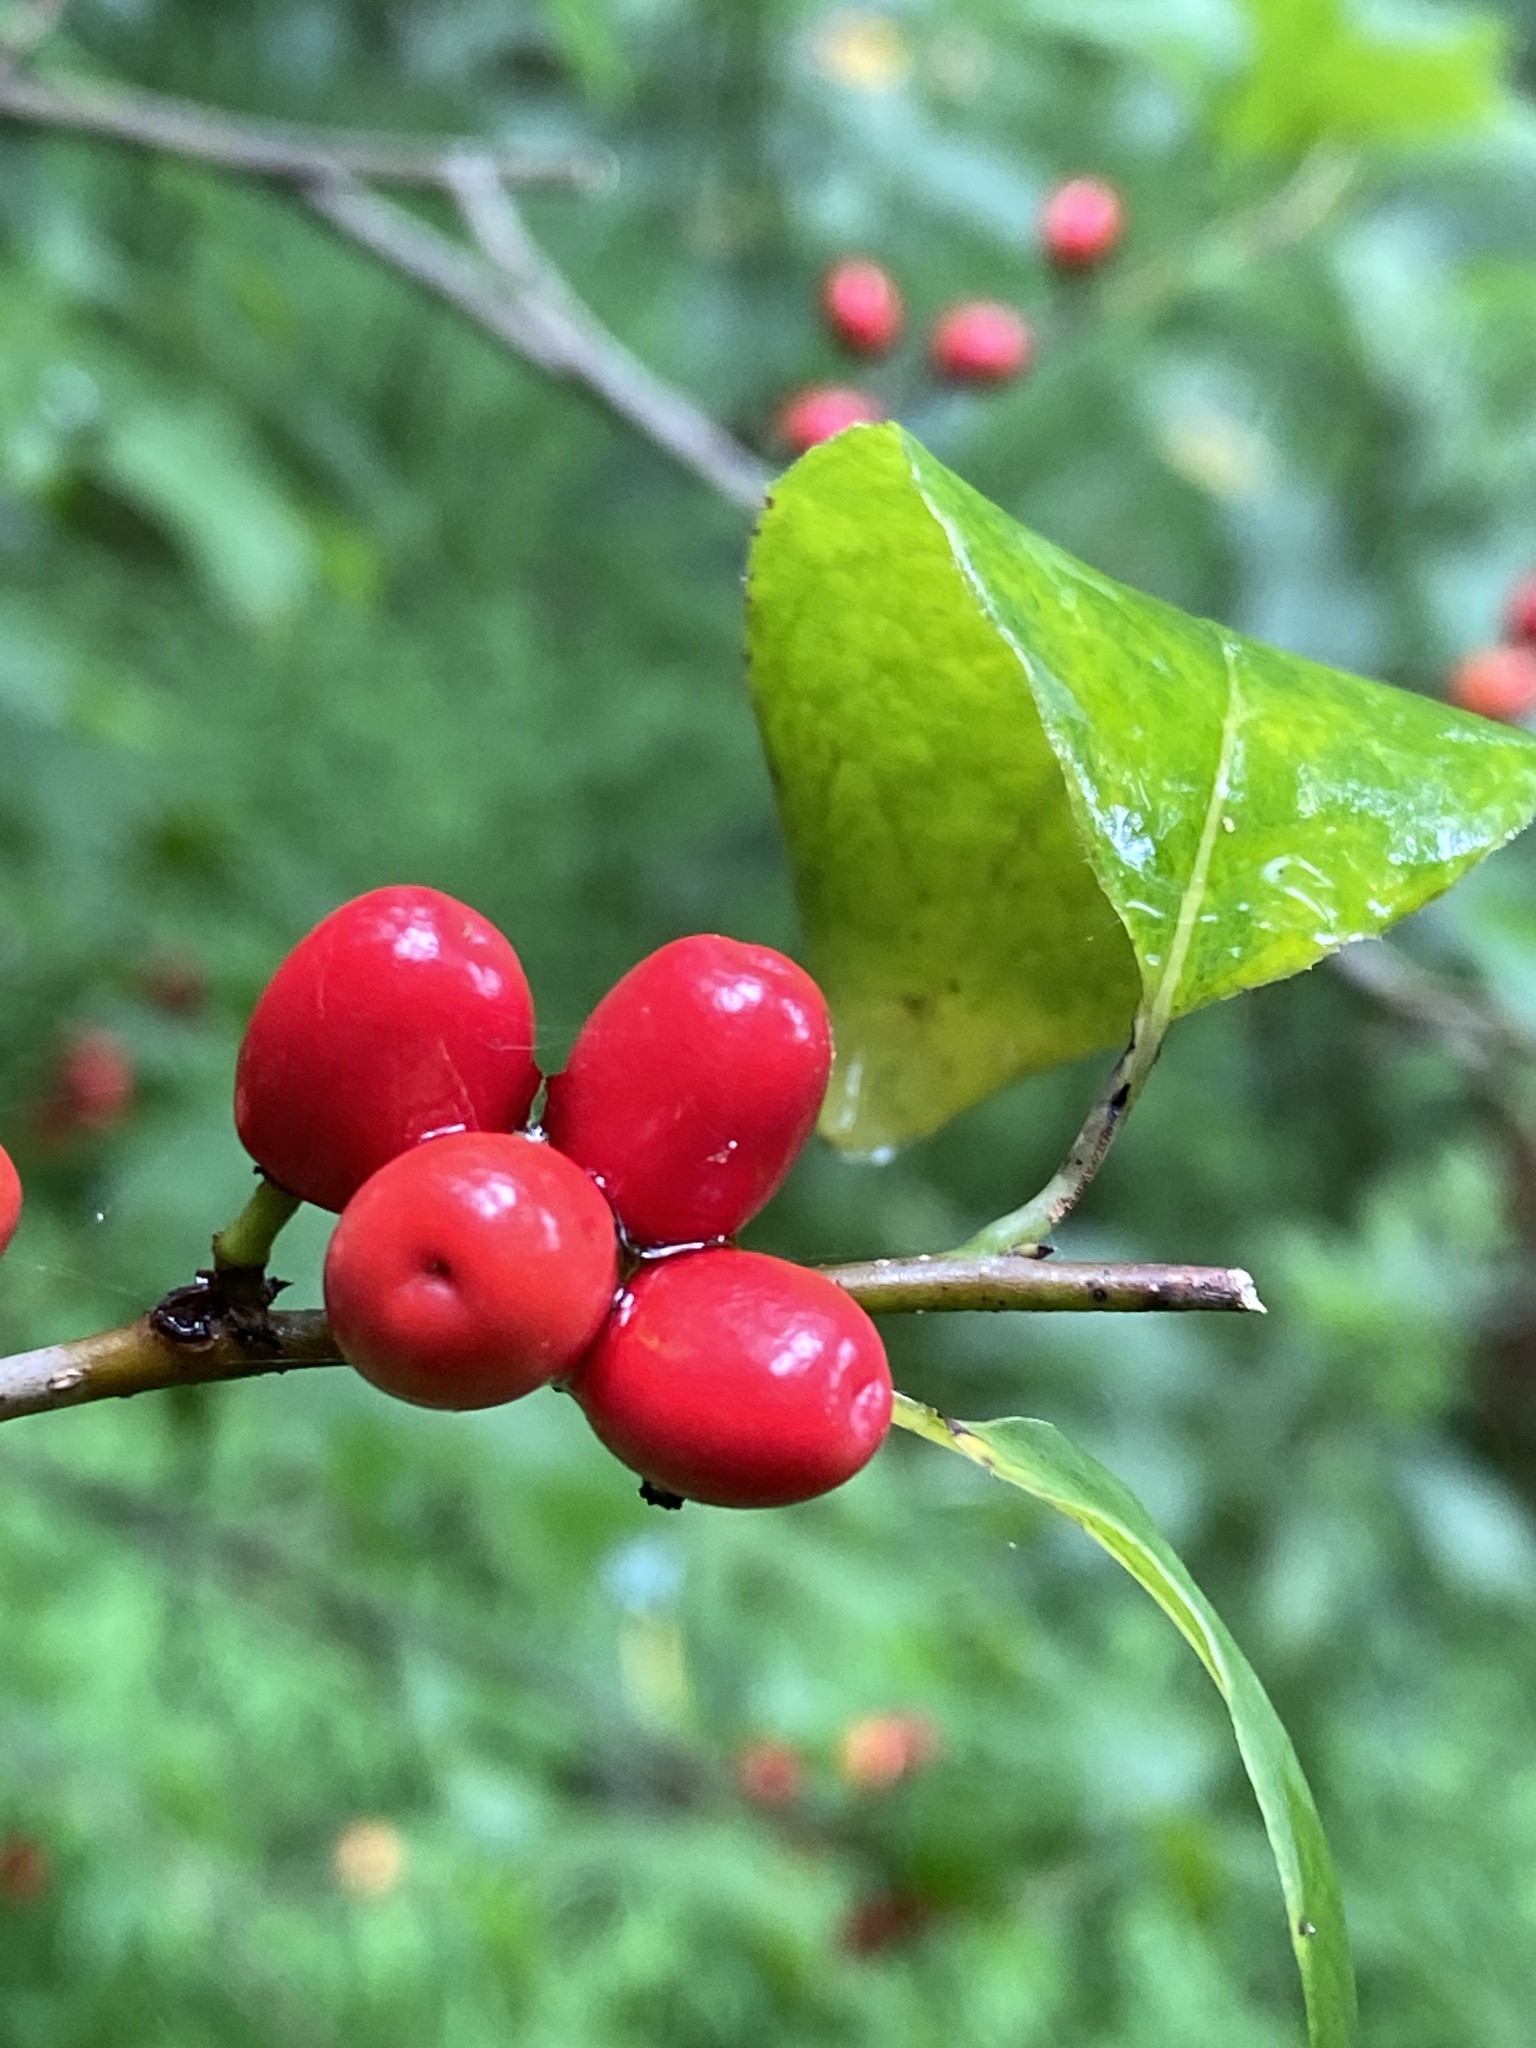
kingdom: Plantae
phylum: Tracheophyta
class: Magnoliopsida
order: Laurales
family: Lauraceae
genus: Lindera
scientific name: Lindera benzoin
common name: Spicebush
